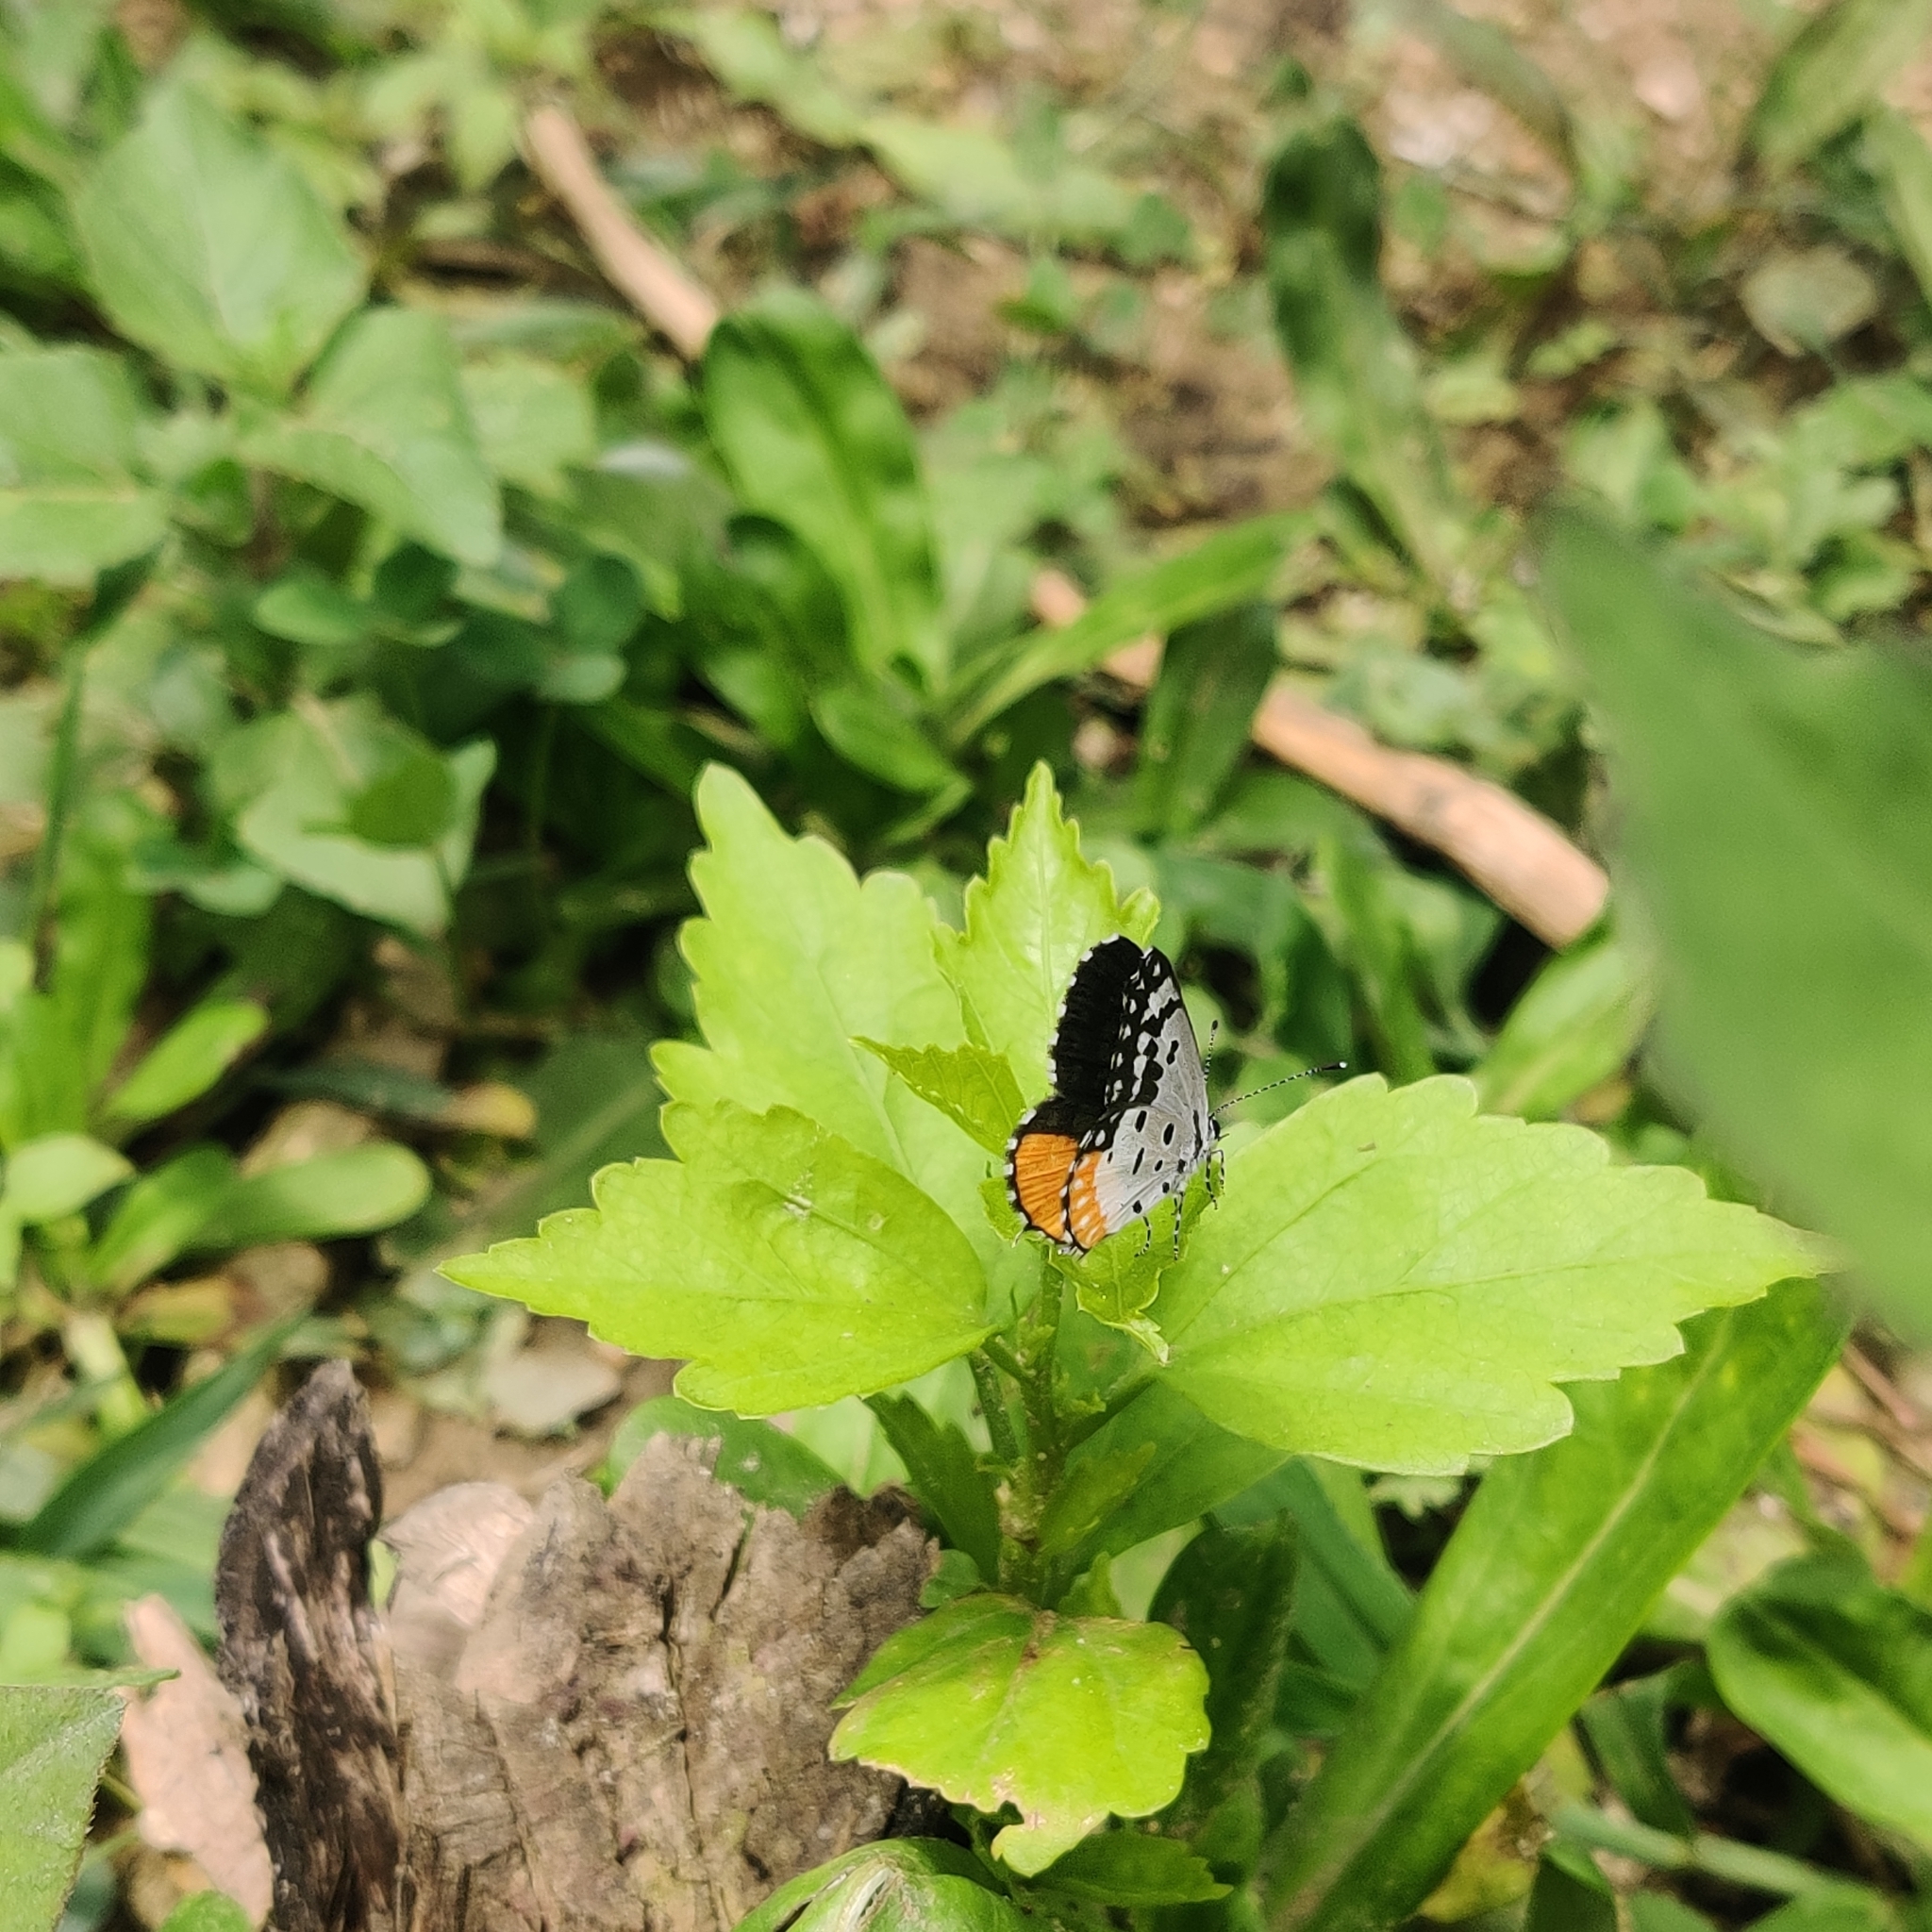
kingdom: Animalia
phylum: Arthropoda
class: Insecta
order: Lepidoptera
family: Lycaenidae
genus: Talicada
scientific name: Talicada nyseus
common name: Red pierrot
